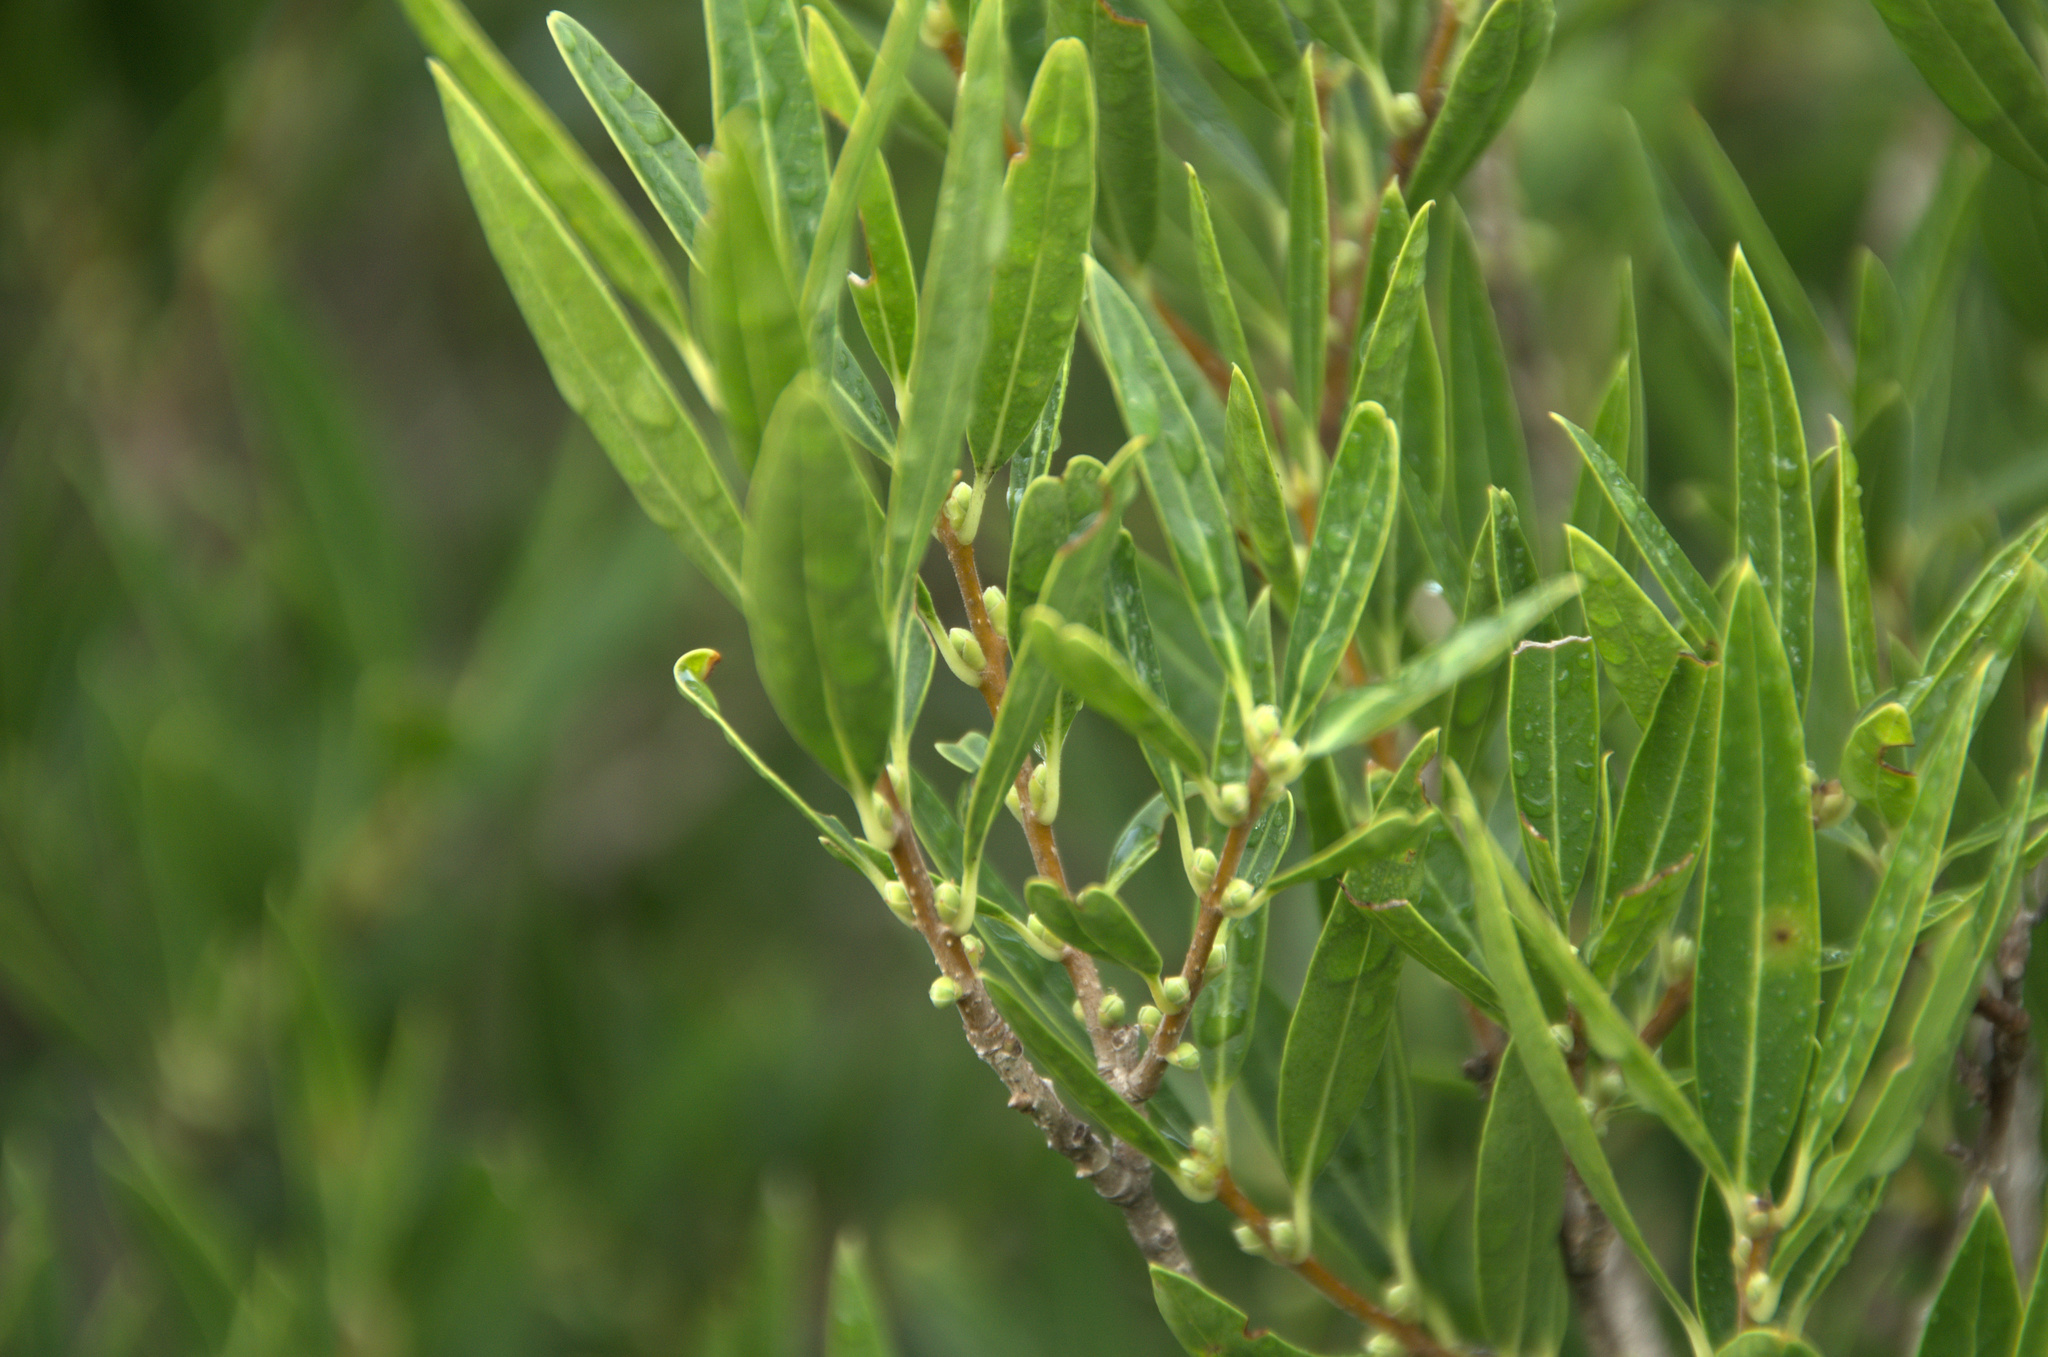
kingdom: Plantae
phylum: Tracheophyta
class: Magnoliopsida
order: Lamiales
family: Oleaceae
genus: Phillyrea
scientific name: Phillyrea angustifolia
